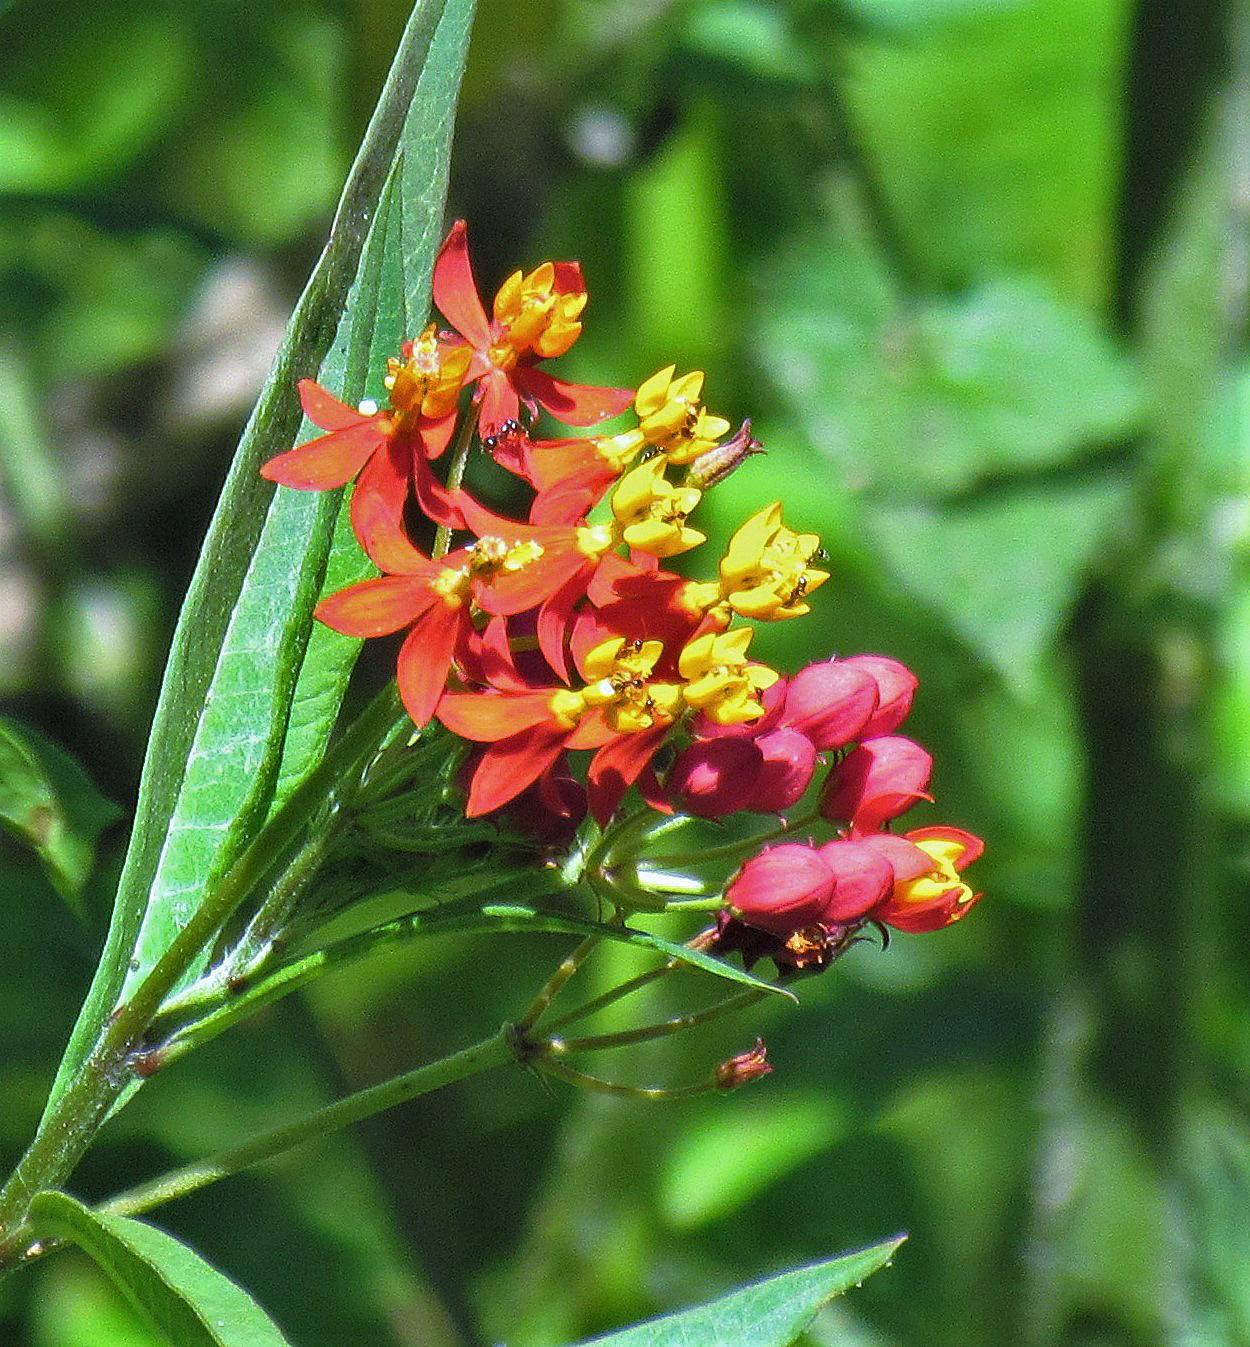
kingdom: Plantae
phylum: Tracheophyta
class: Magnoliopsida
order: Gentianales
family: Apocynaceae
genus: Asclepias
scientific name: Asclepias curassavica
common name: Bloodflower
